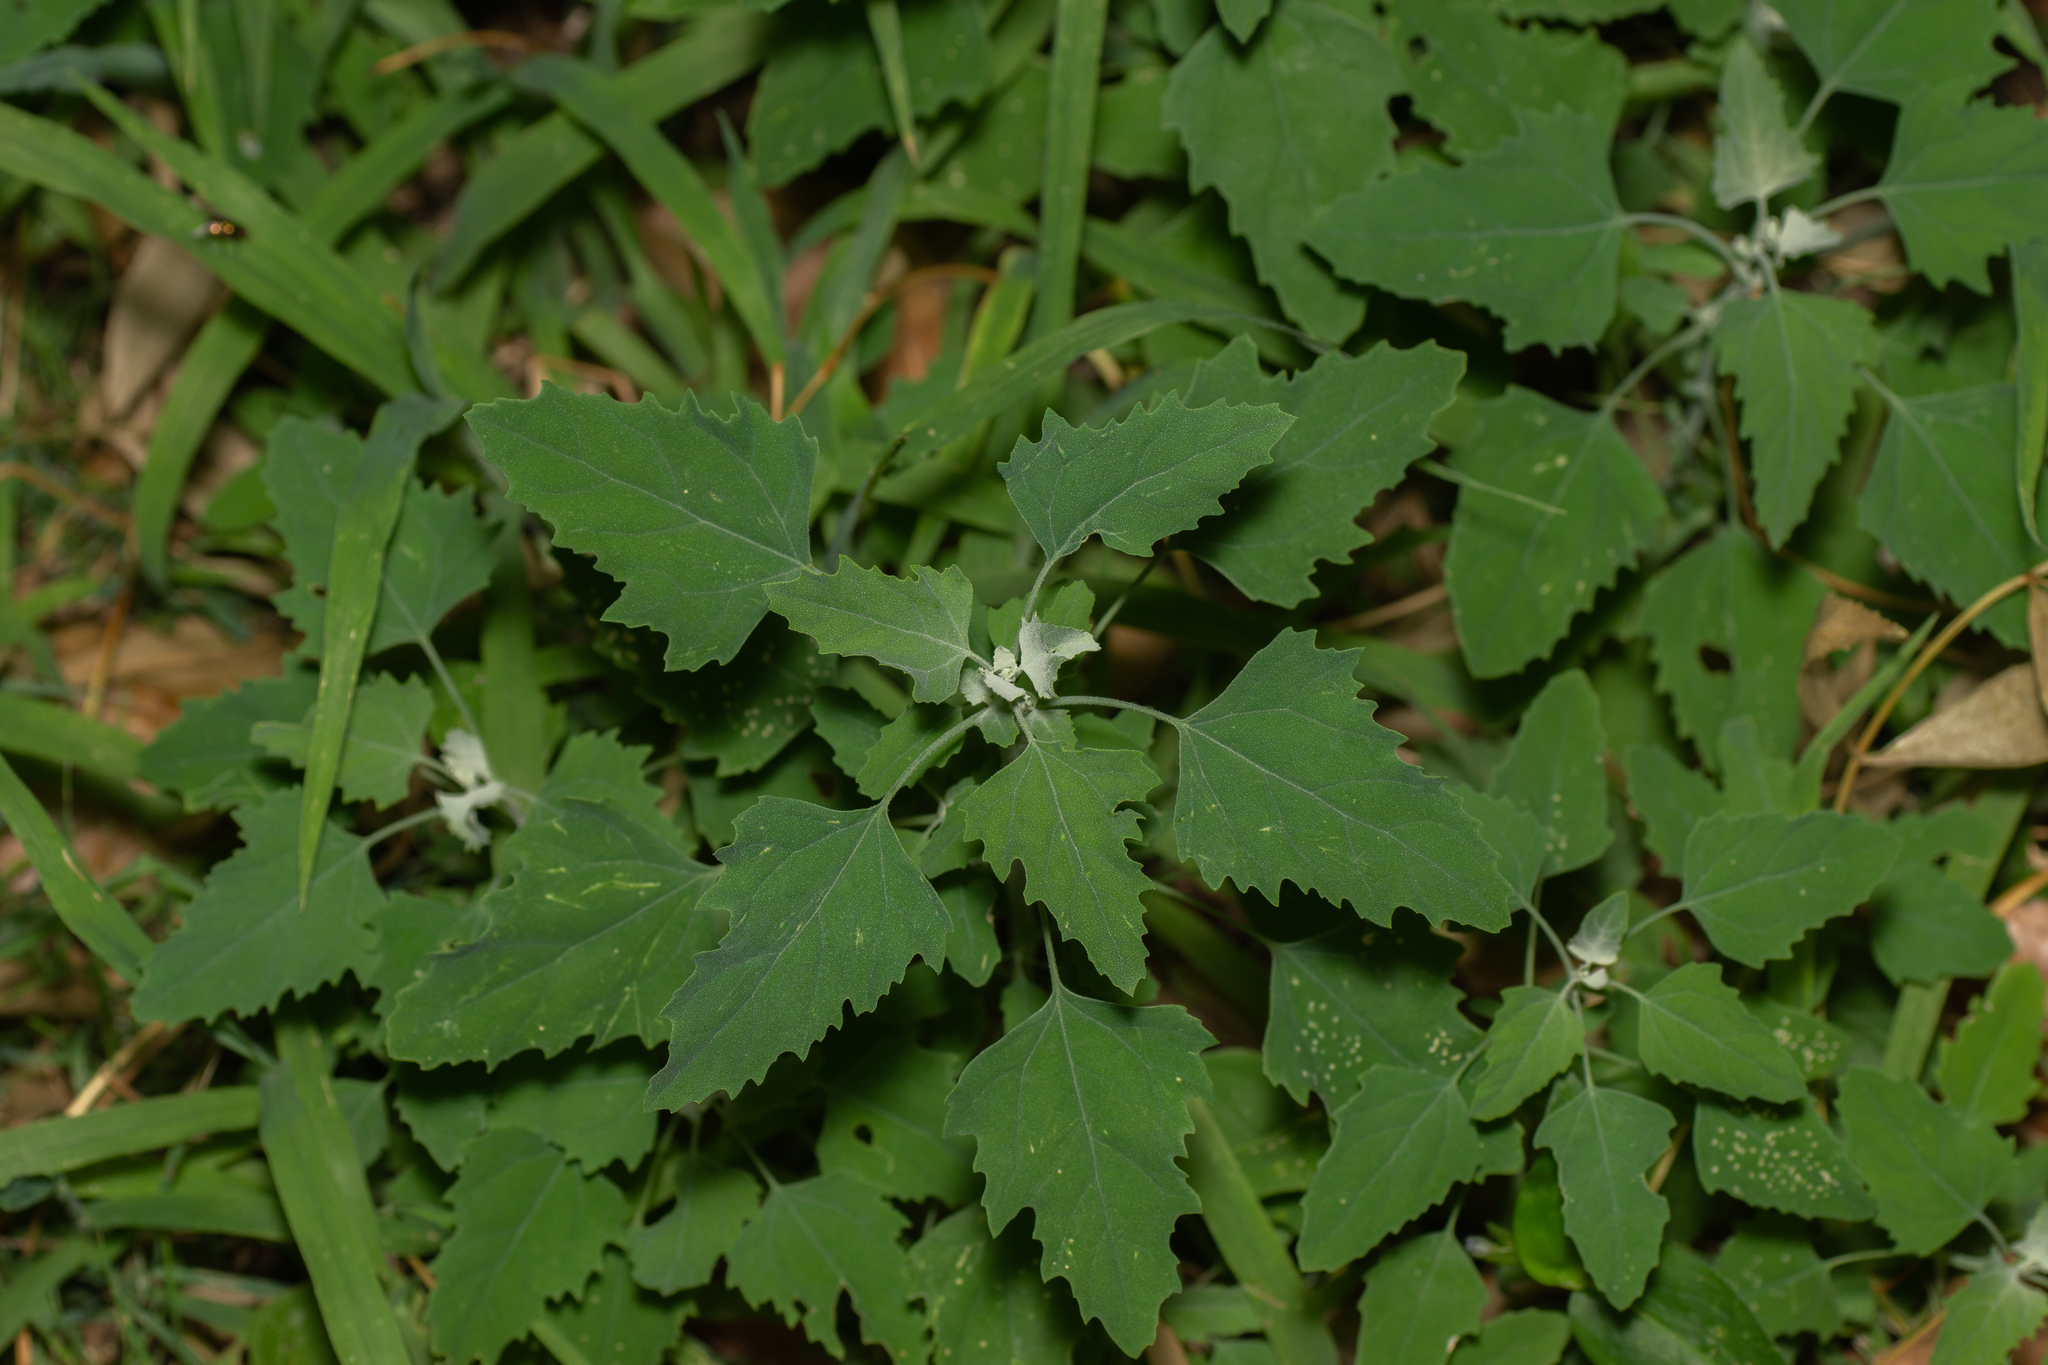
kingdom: Plantae
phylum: Tracheophyta
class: Magnoliopsida
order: Caryophyllales
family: Amaranthaceae
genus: Chenopodium
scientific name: Chenopodium album
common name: Fat-hen
